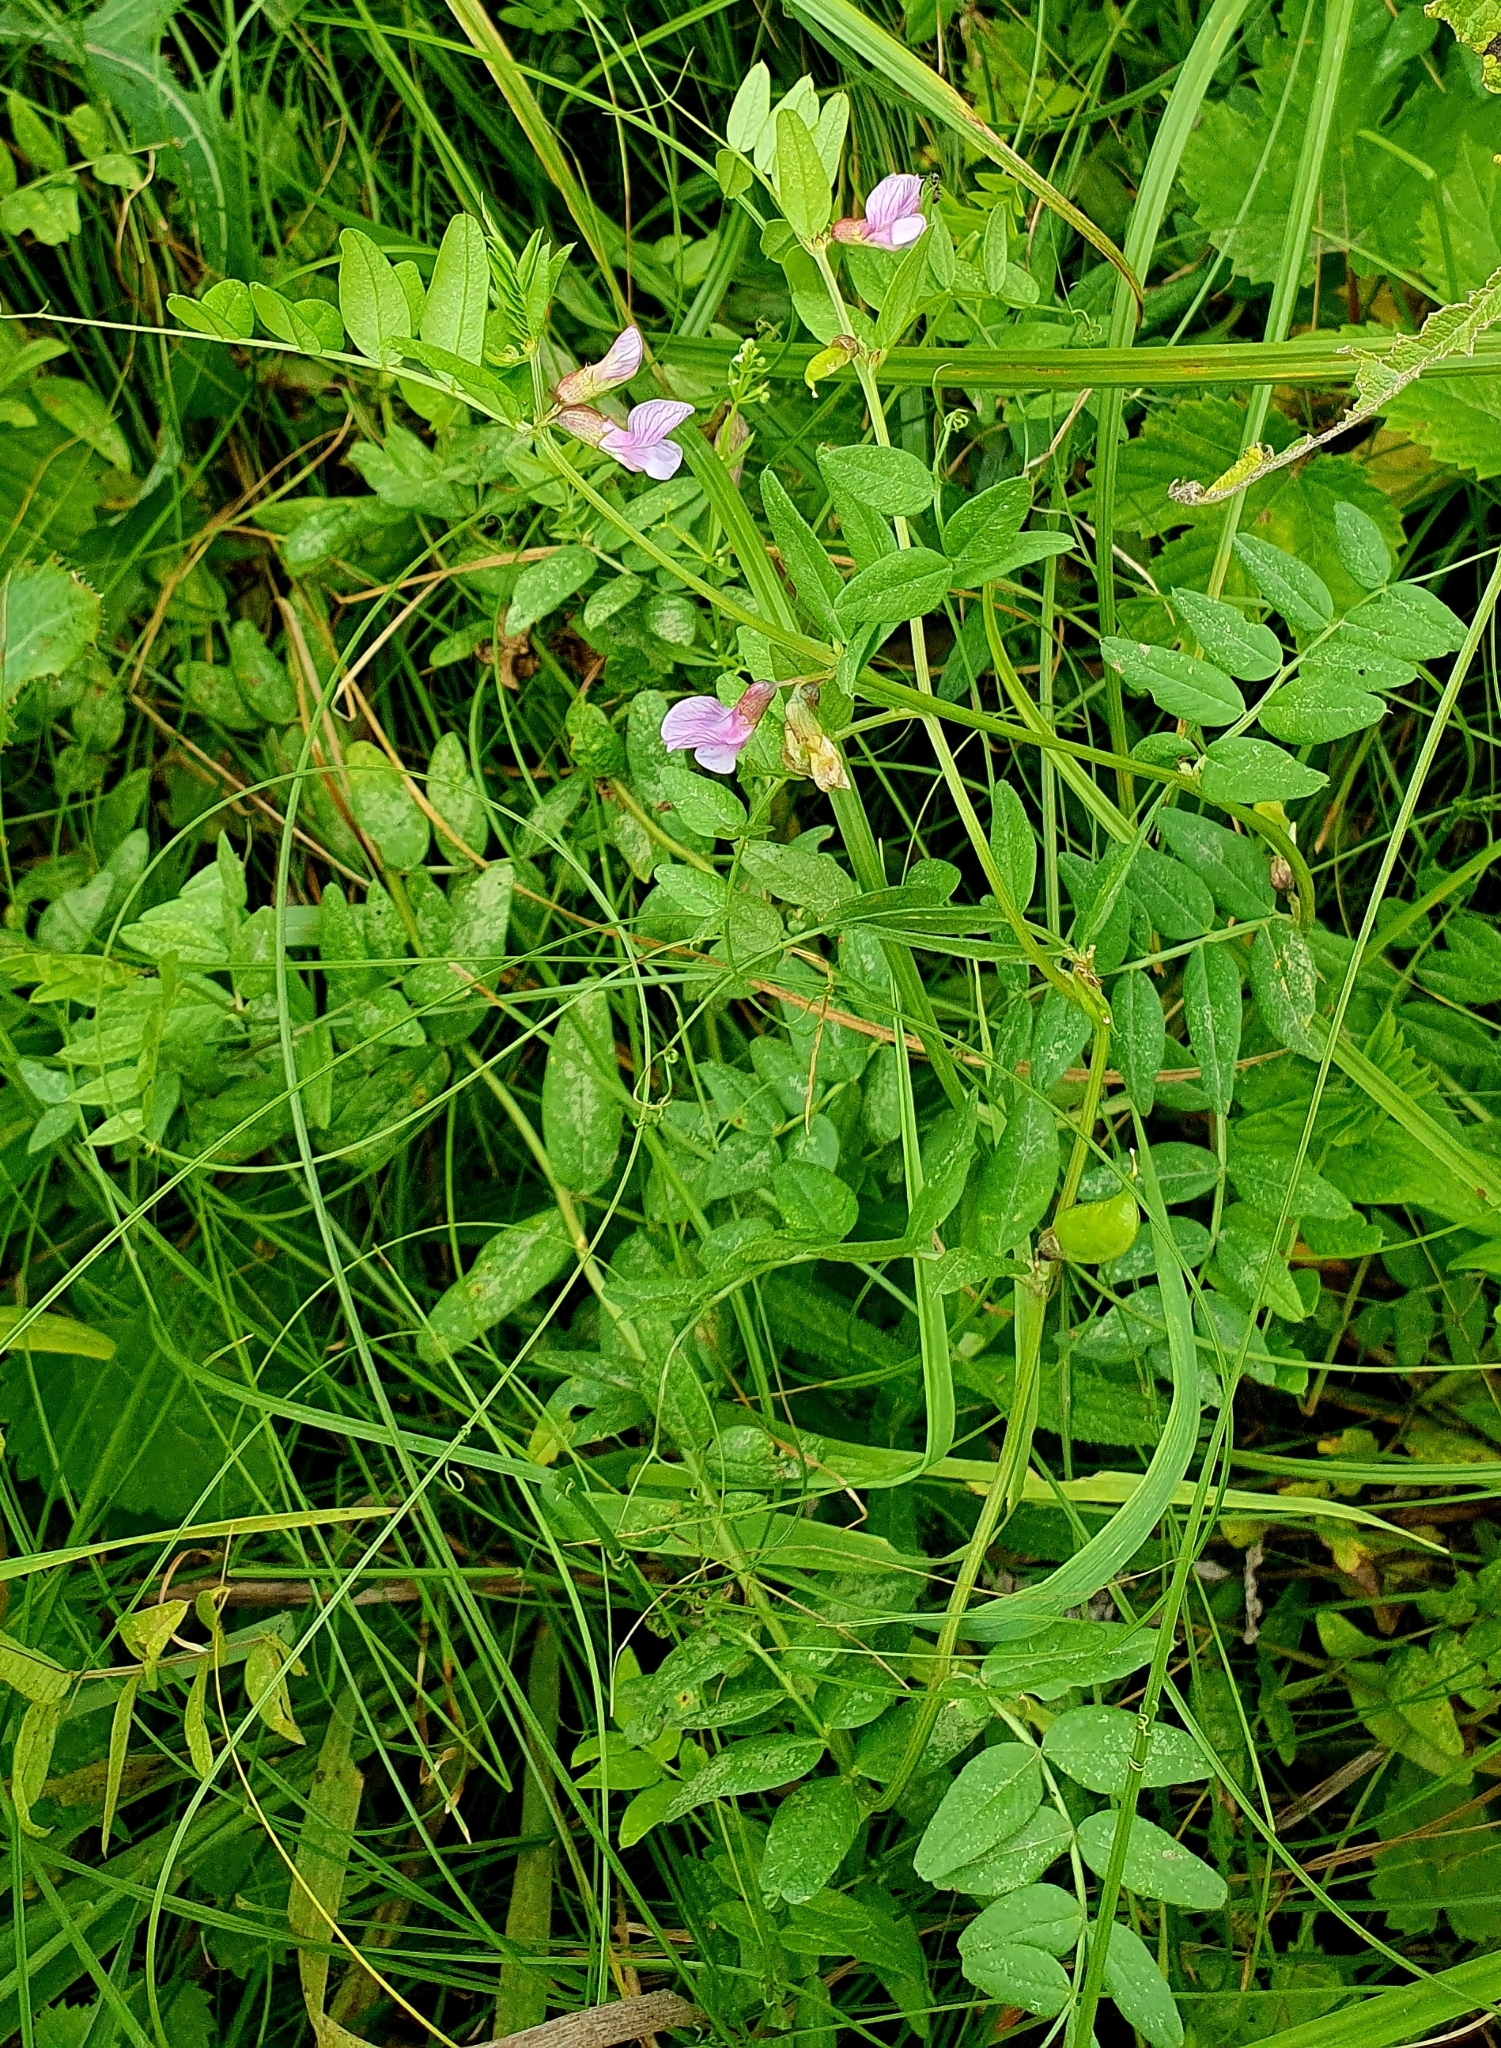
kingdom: Plantae
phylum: Tracheophyta
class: Magnoliopsida
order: Fabales
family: Fabaceae
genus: Vicia
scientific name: Vicia sepium
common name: Bush vetch
